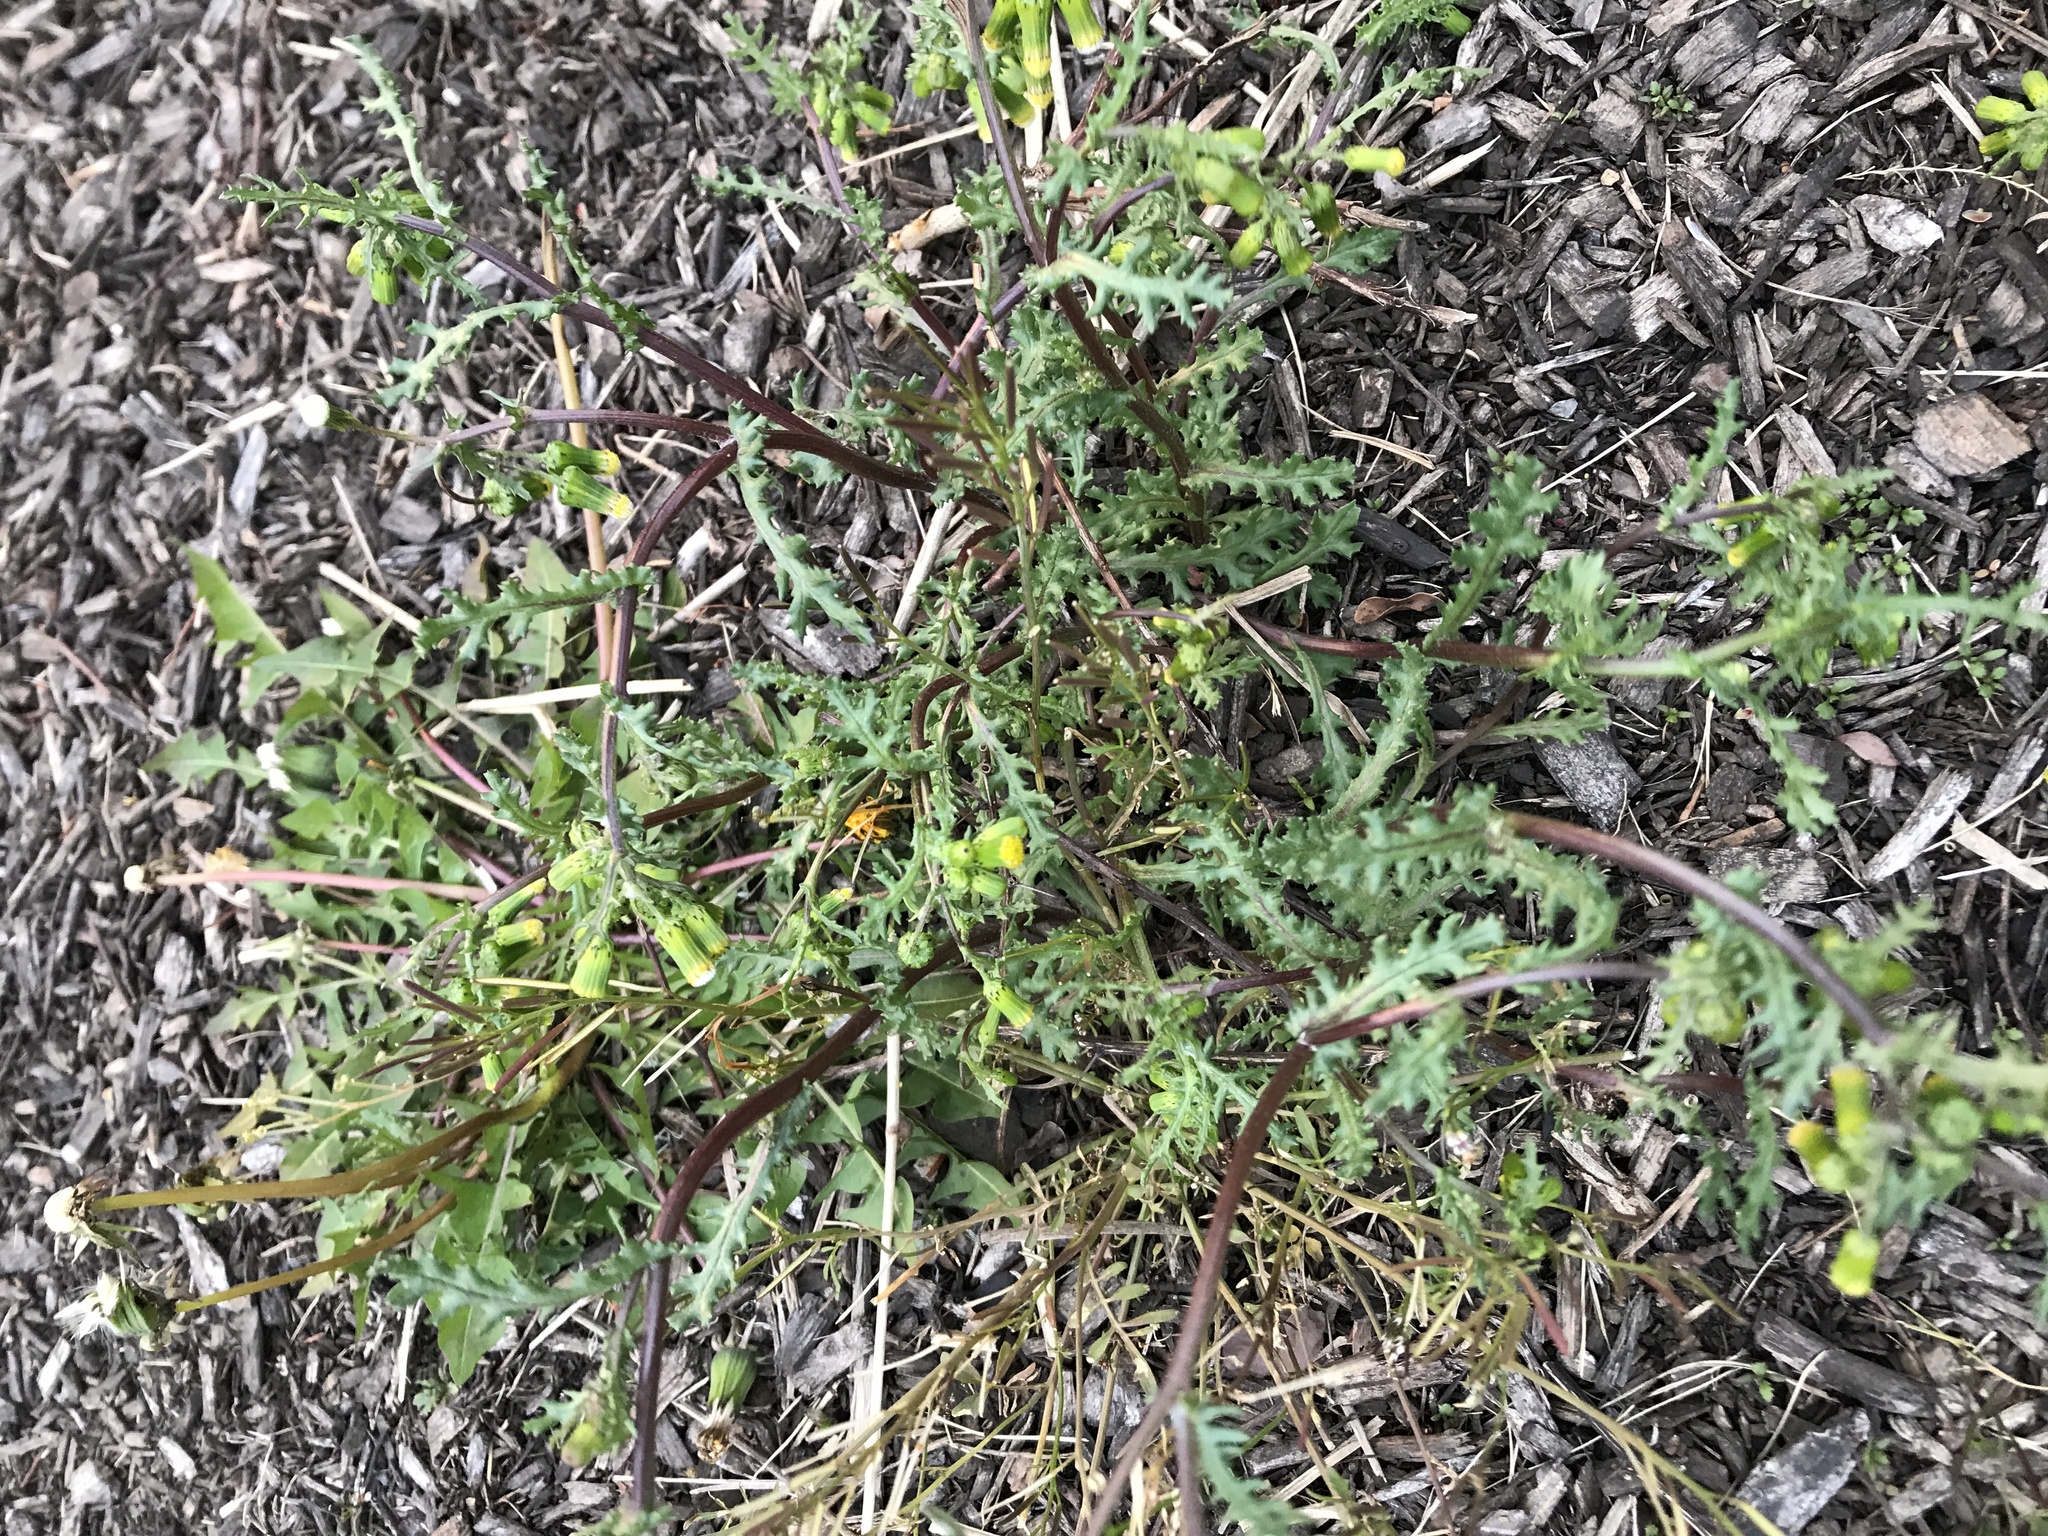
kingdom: Plantae
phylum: Tracheophyta
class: Magnoliopsida
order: Asterales
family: Asteraceae
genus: Senecio
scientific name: Senecio vulgaris
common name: Old-man-in-the-spring
